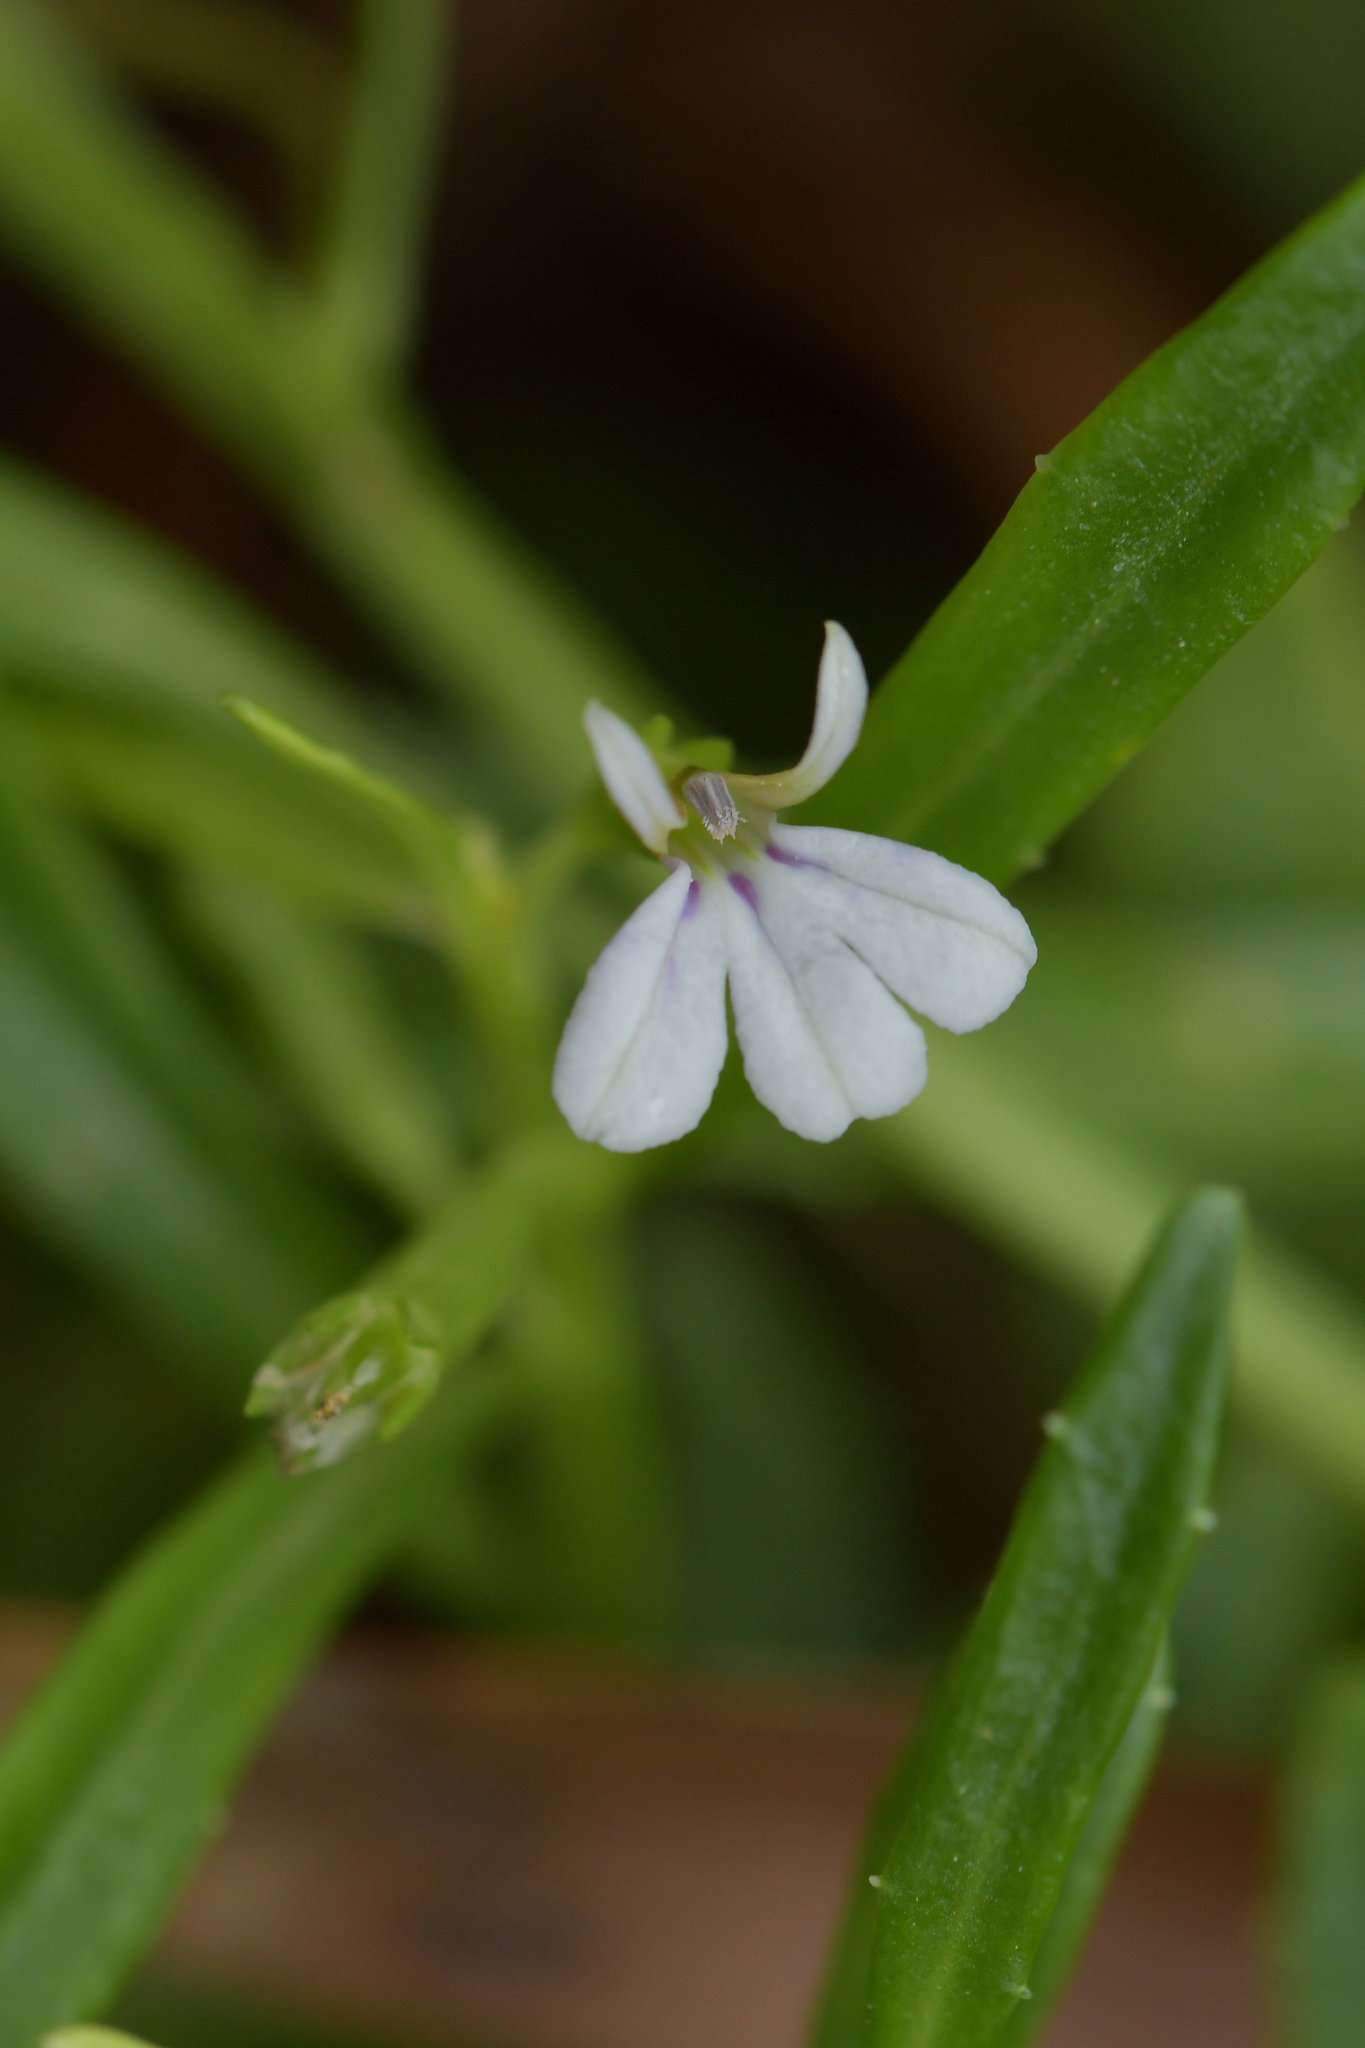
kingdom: Plantae
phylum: Tracheophyta
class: Magnoliopsida
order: Asterales
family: Campanulaceae
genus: Lobelia
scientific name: Lobelia anceps
